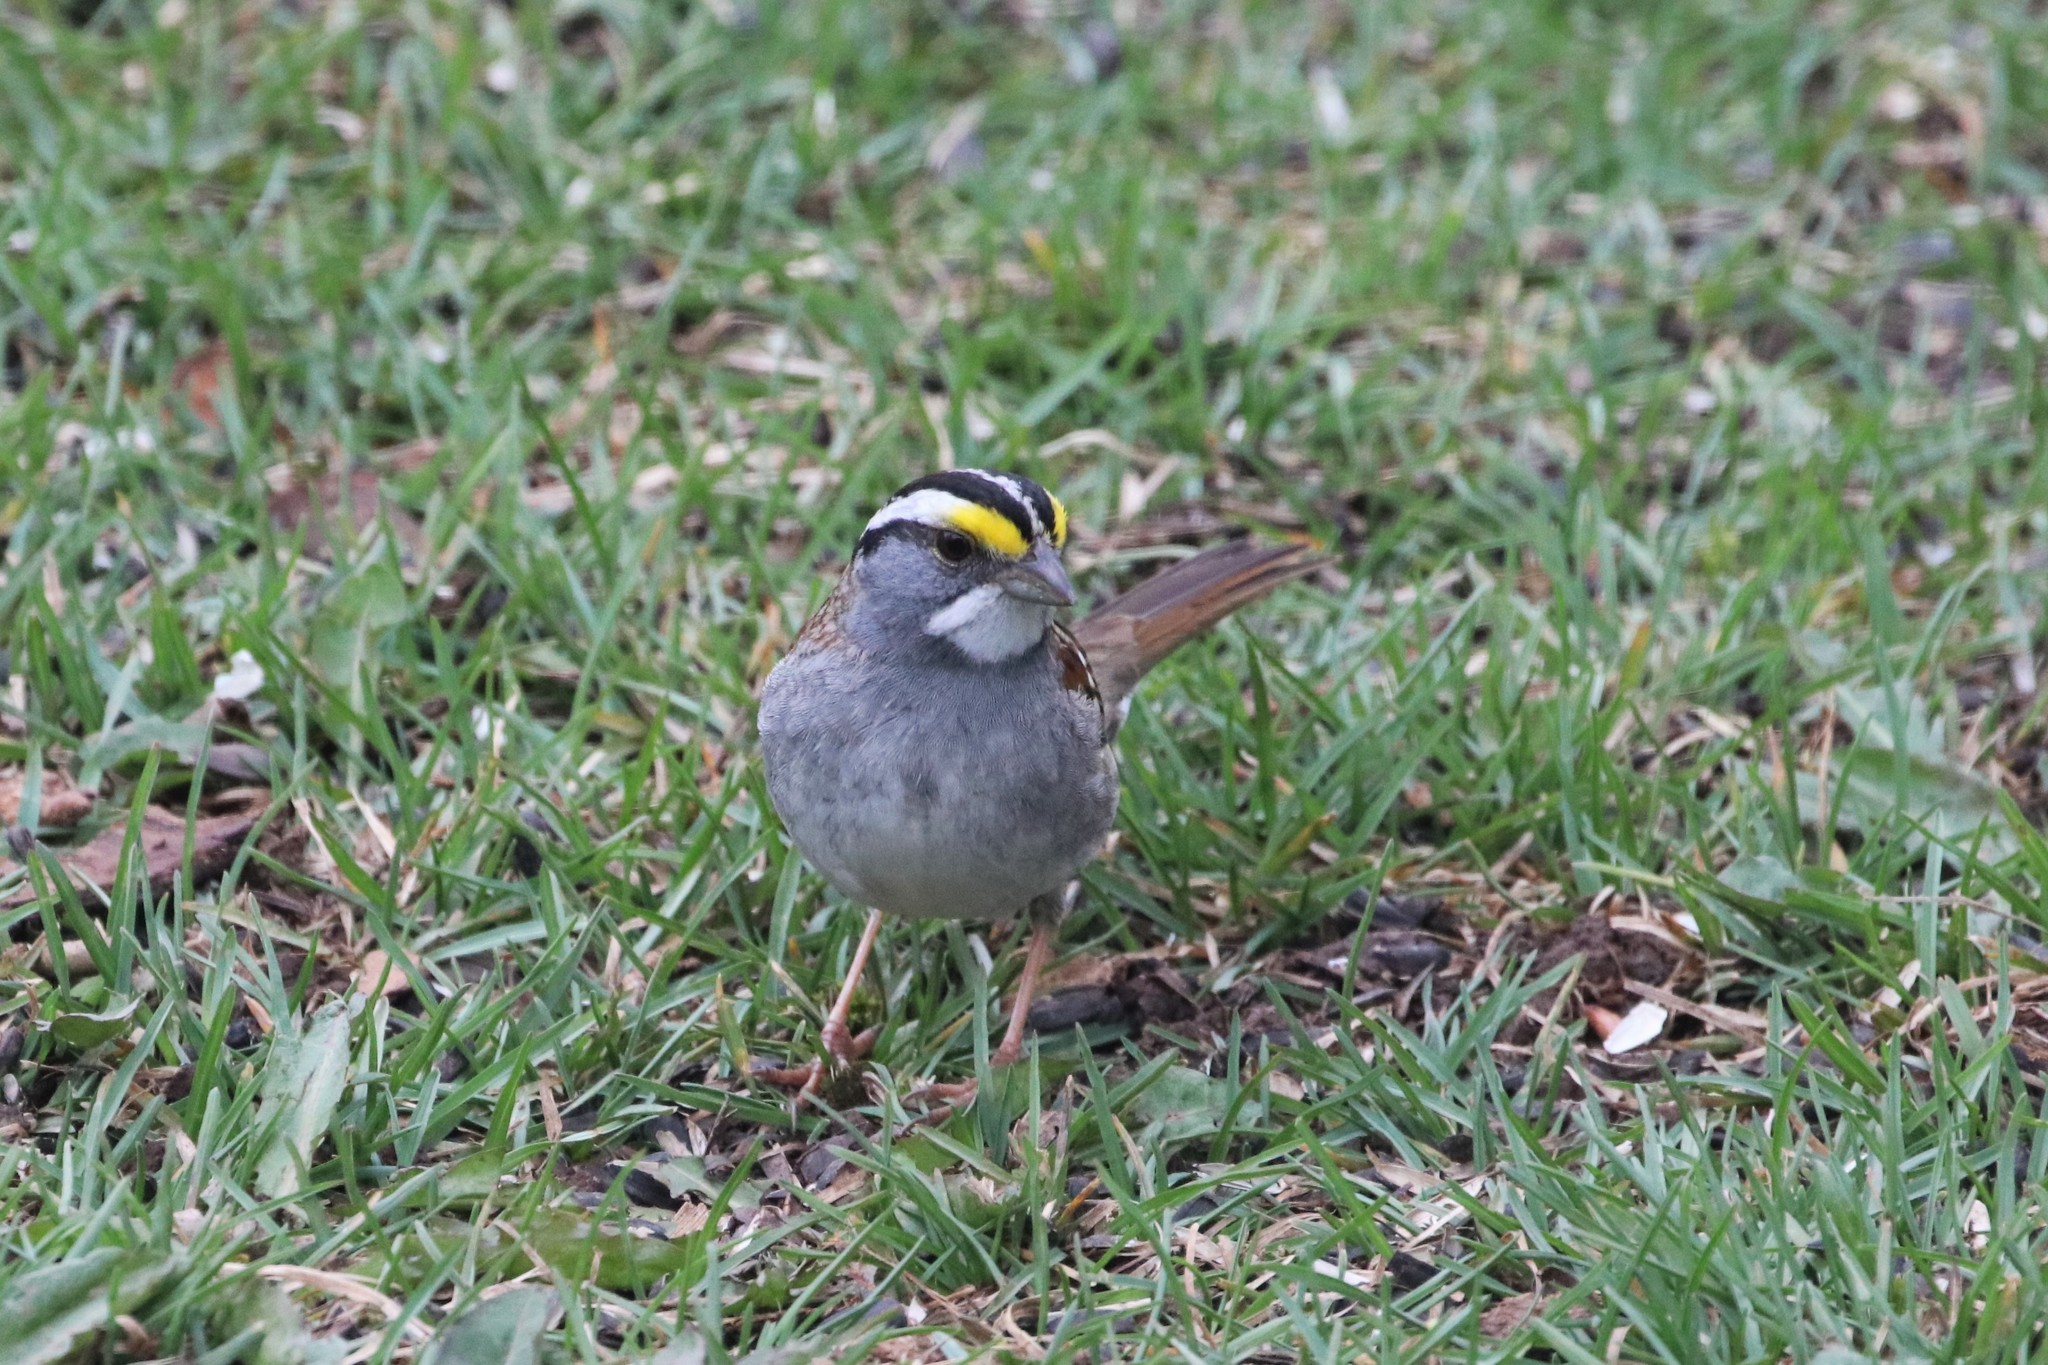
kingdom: Animalia
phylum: Chordata
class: Aves
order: Passeriformes
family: Passerellidae
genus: Zonotrichia
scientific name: Zonotrichia albicollis
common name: White-throated sparrow
